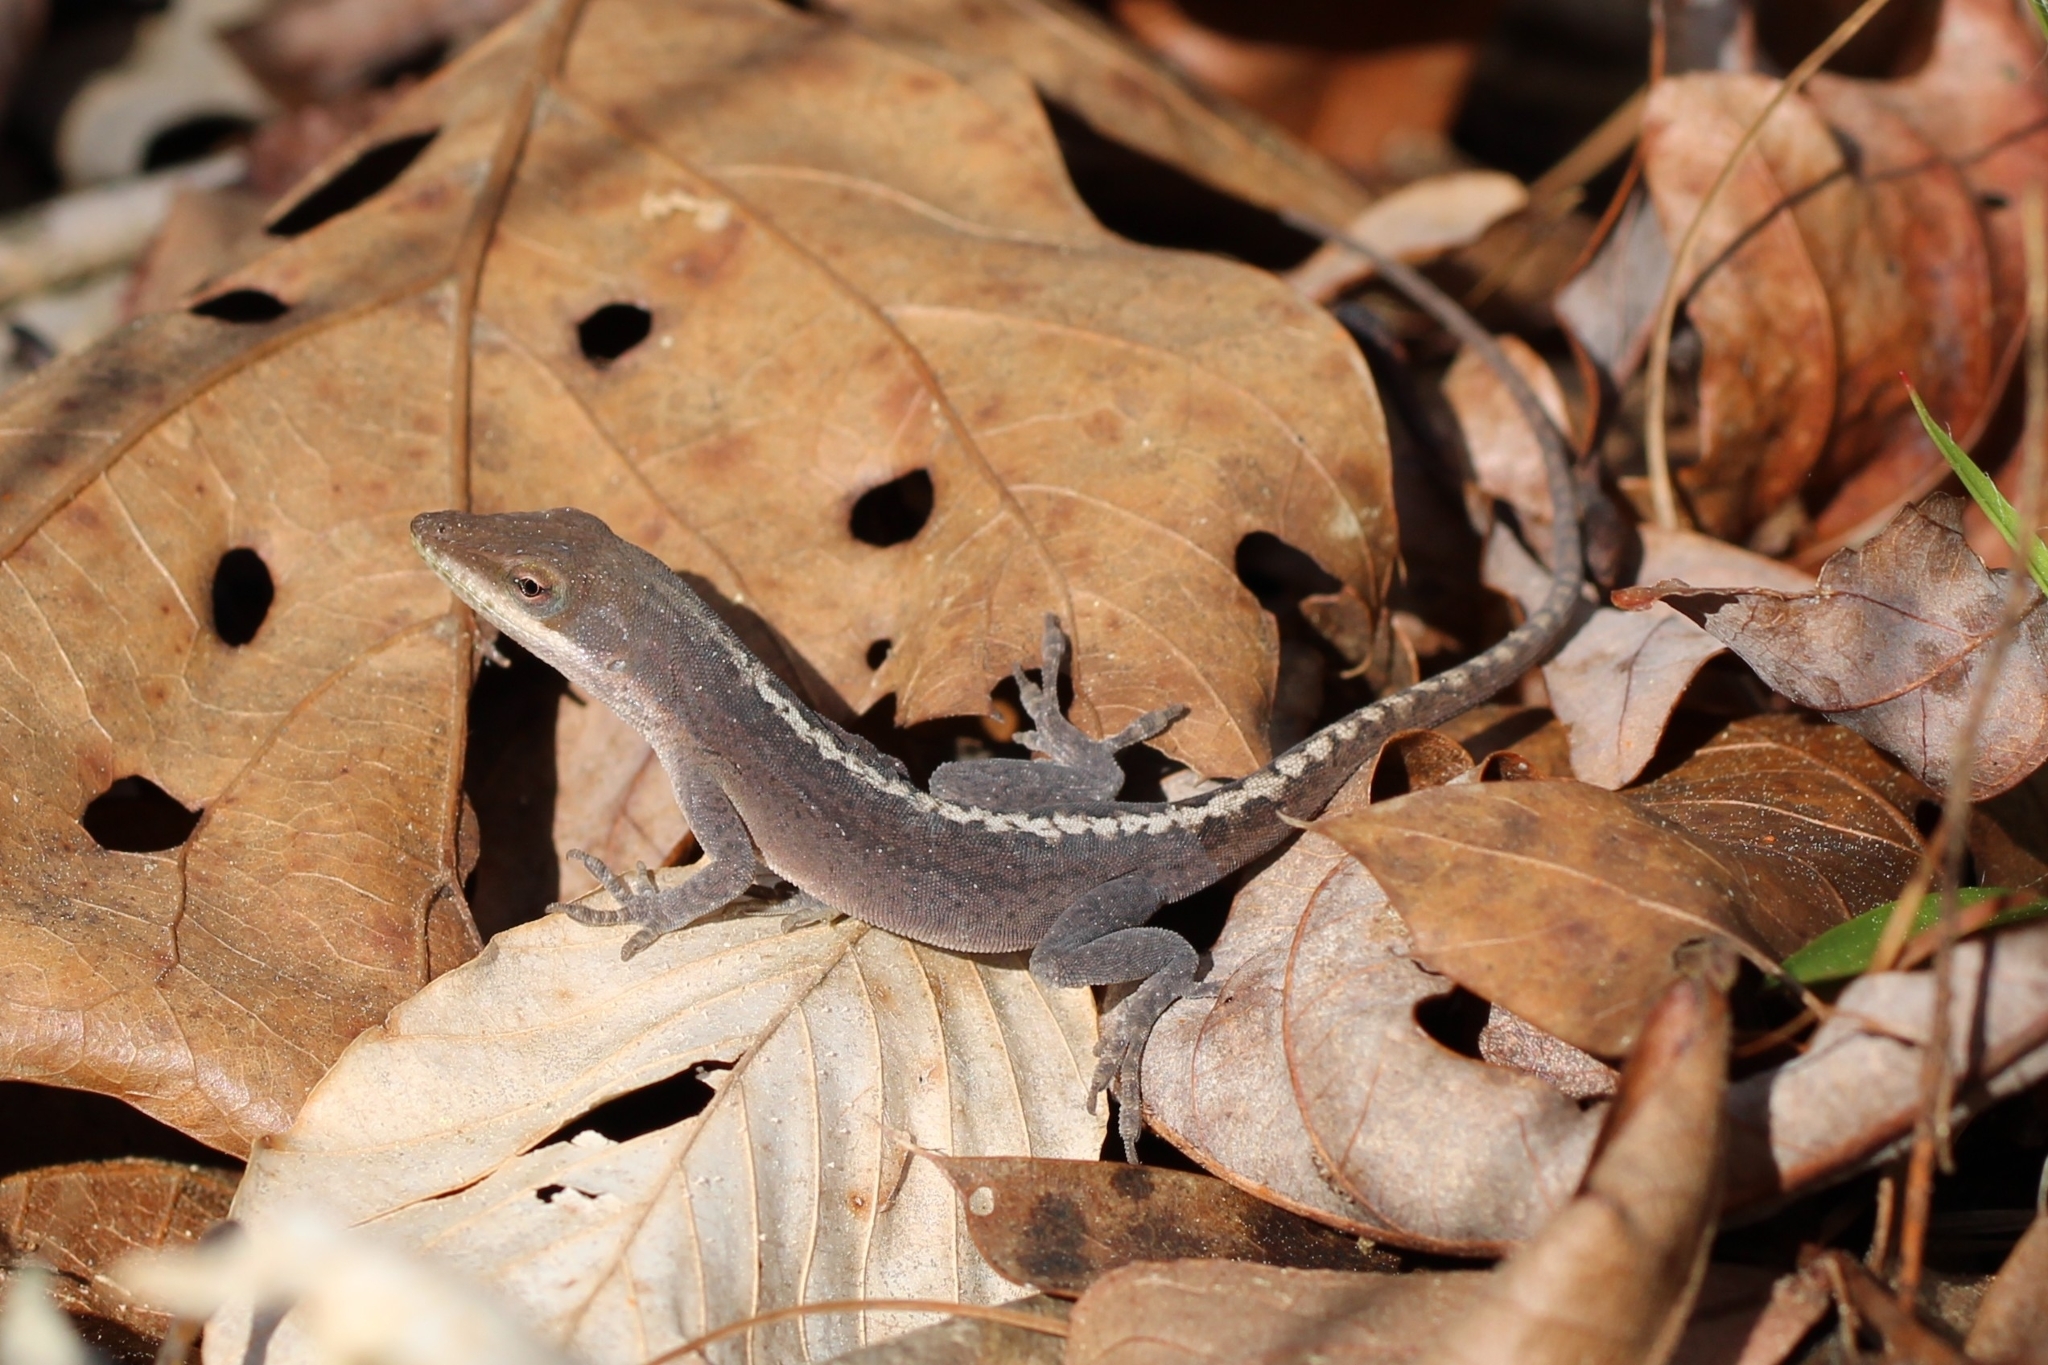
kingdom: Animalia
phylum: Chordata
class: Squamata
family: Dactyloidae
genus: Anolis
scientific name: Anolis carolinensis
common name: Green anole
